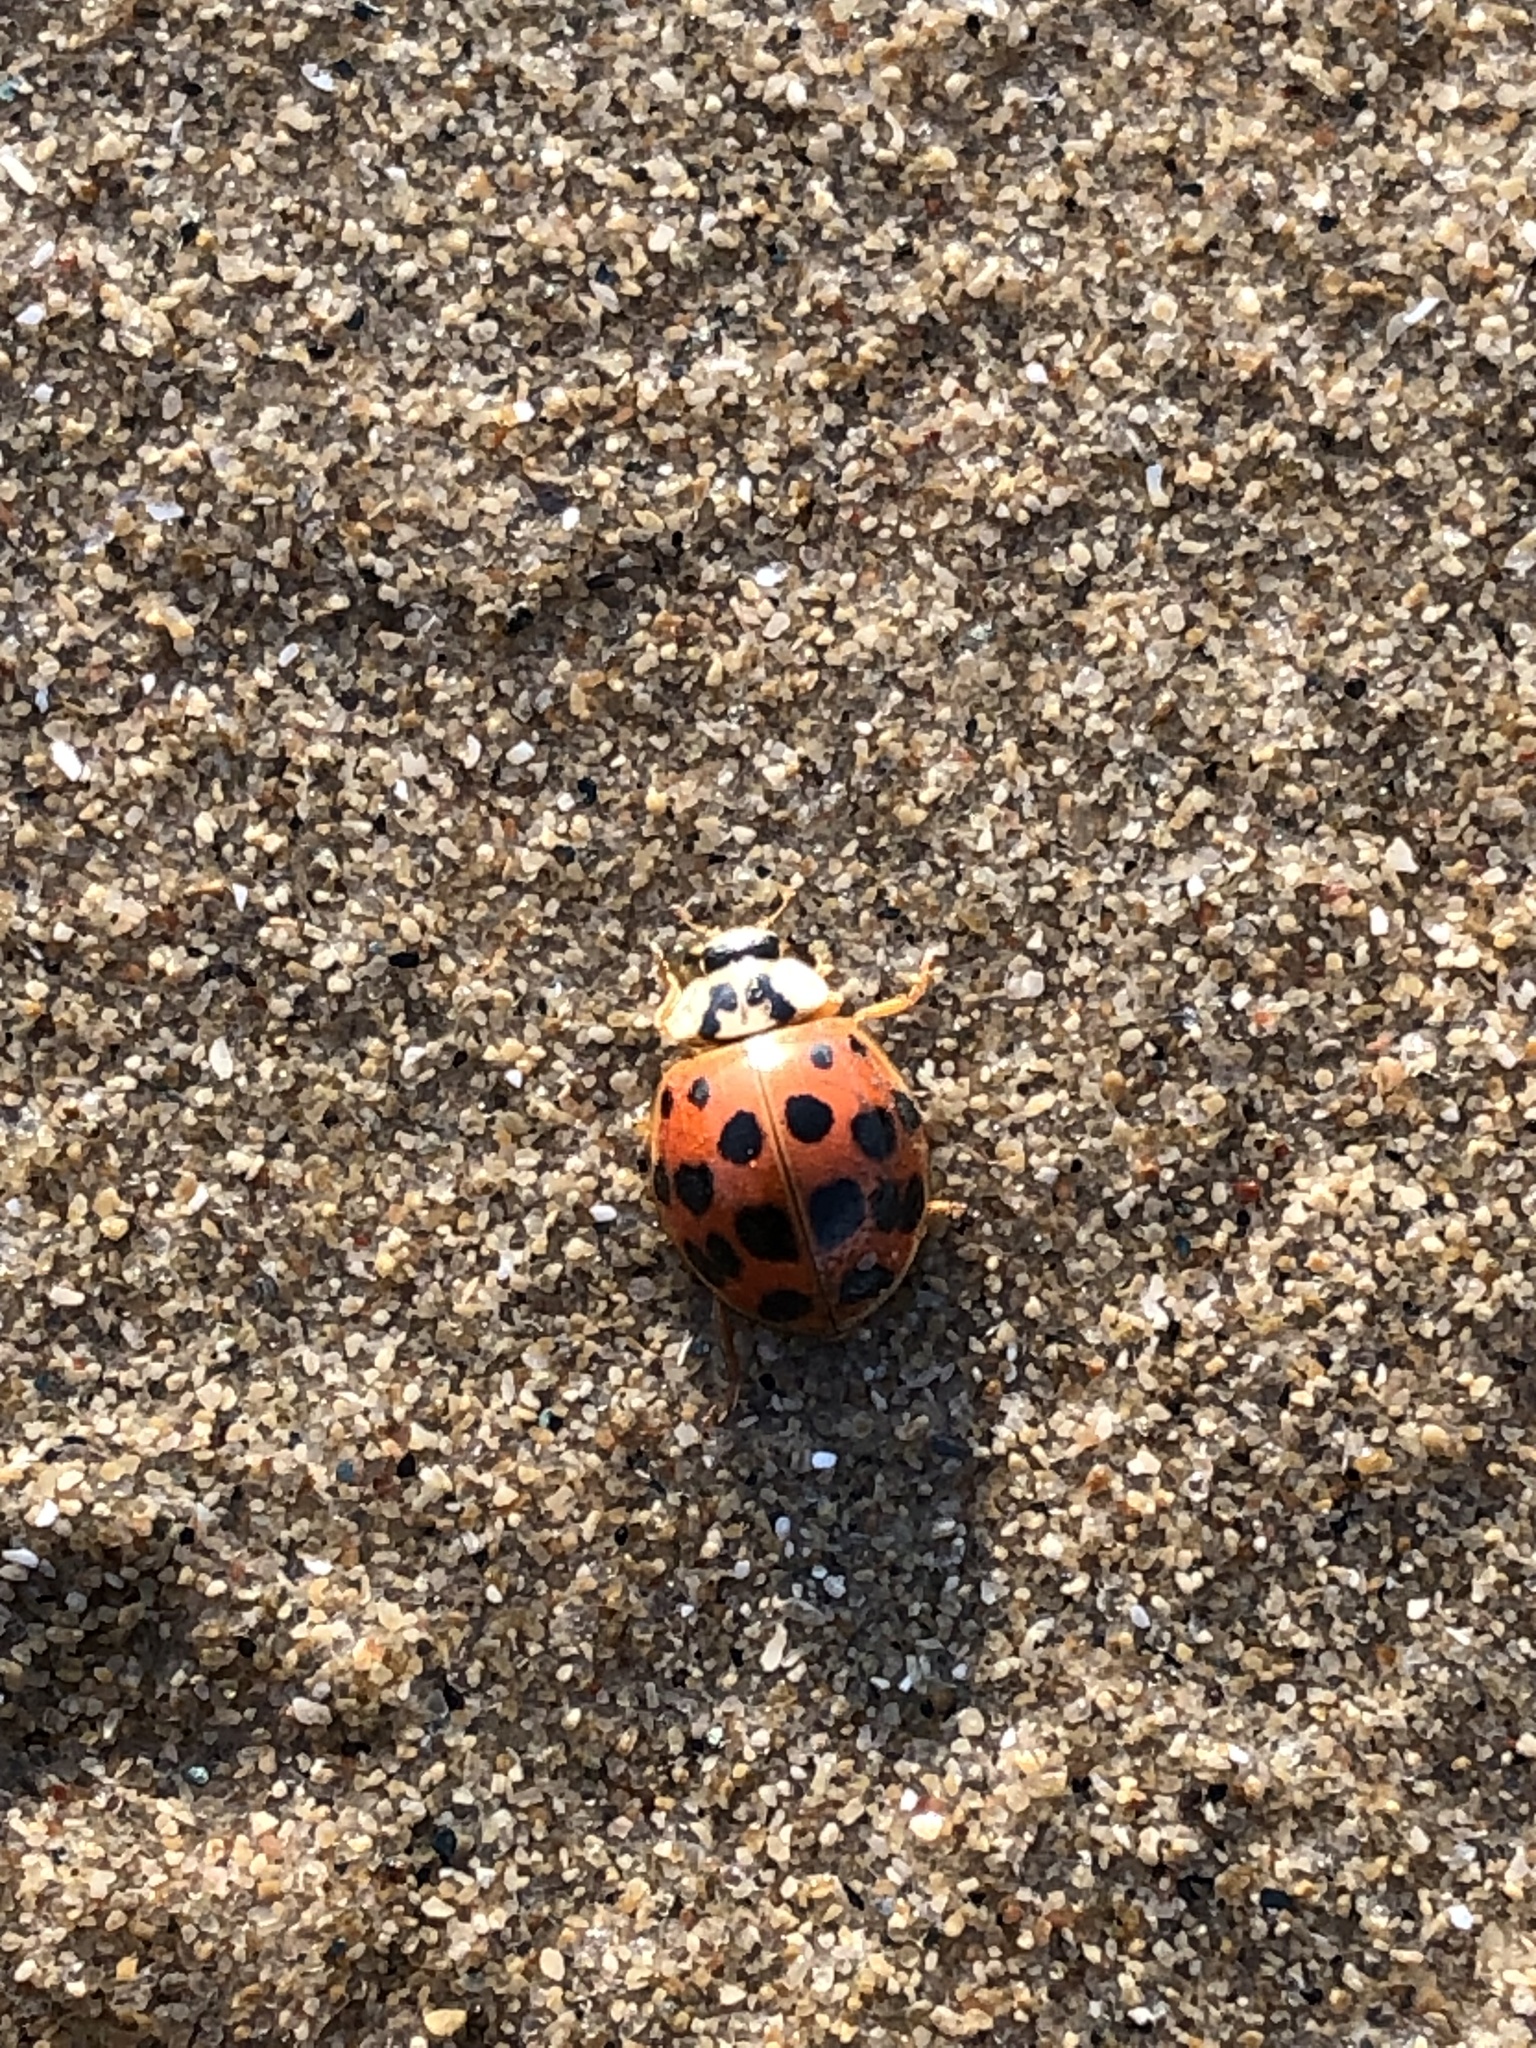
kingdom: Animalia
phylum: Arthropoda
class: Insecta
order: Coleoptera
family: Coccinellidae
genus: Harmonia
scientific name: Harmonia axyridis
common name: Harlequin ladybird
